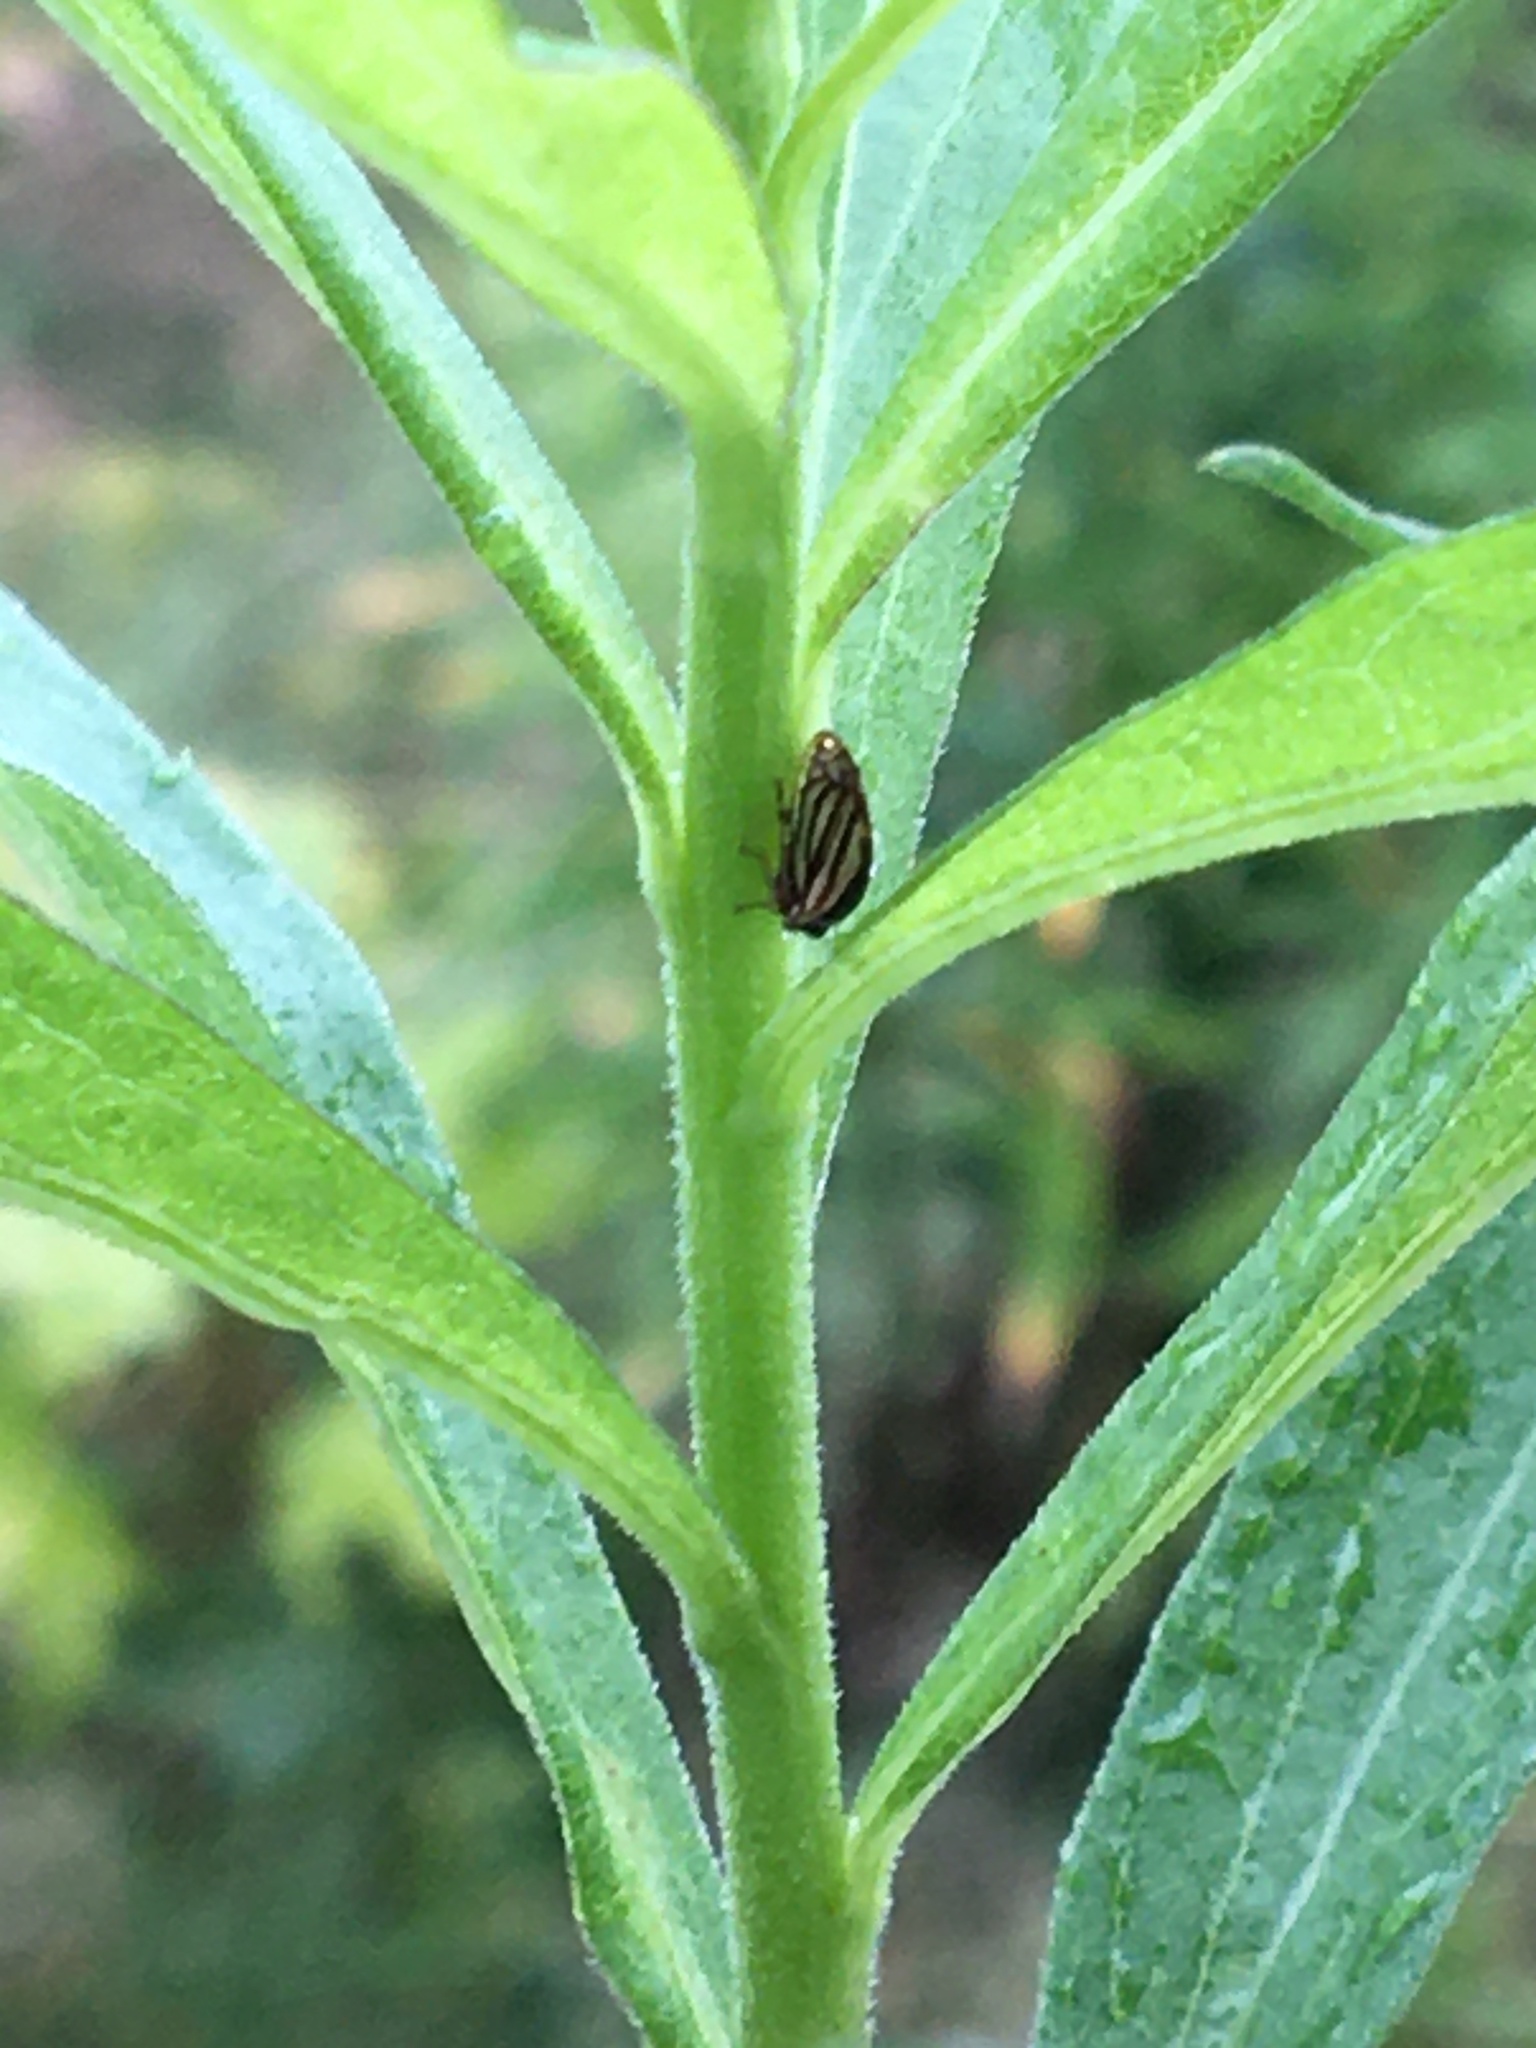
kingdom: Animalia
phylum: Arthropoda
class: Insecta
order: Hemiptera
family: Membracidae
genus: Acutalis
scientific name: Acutalis tartarea
